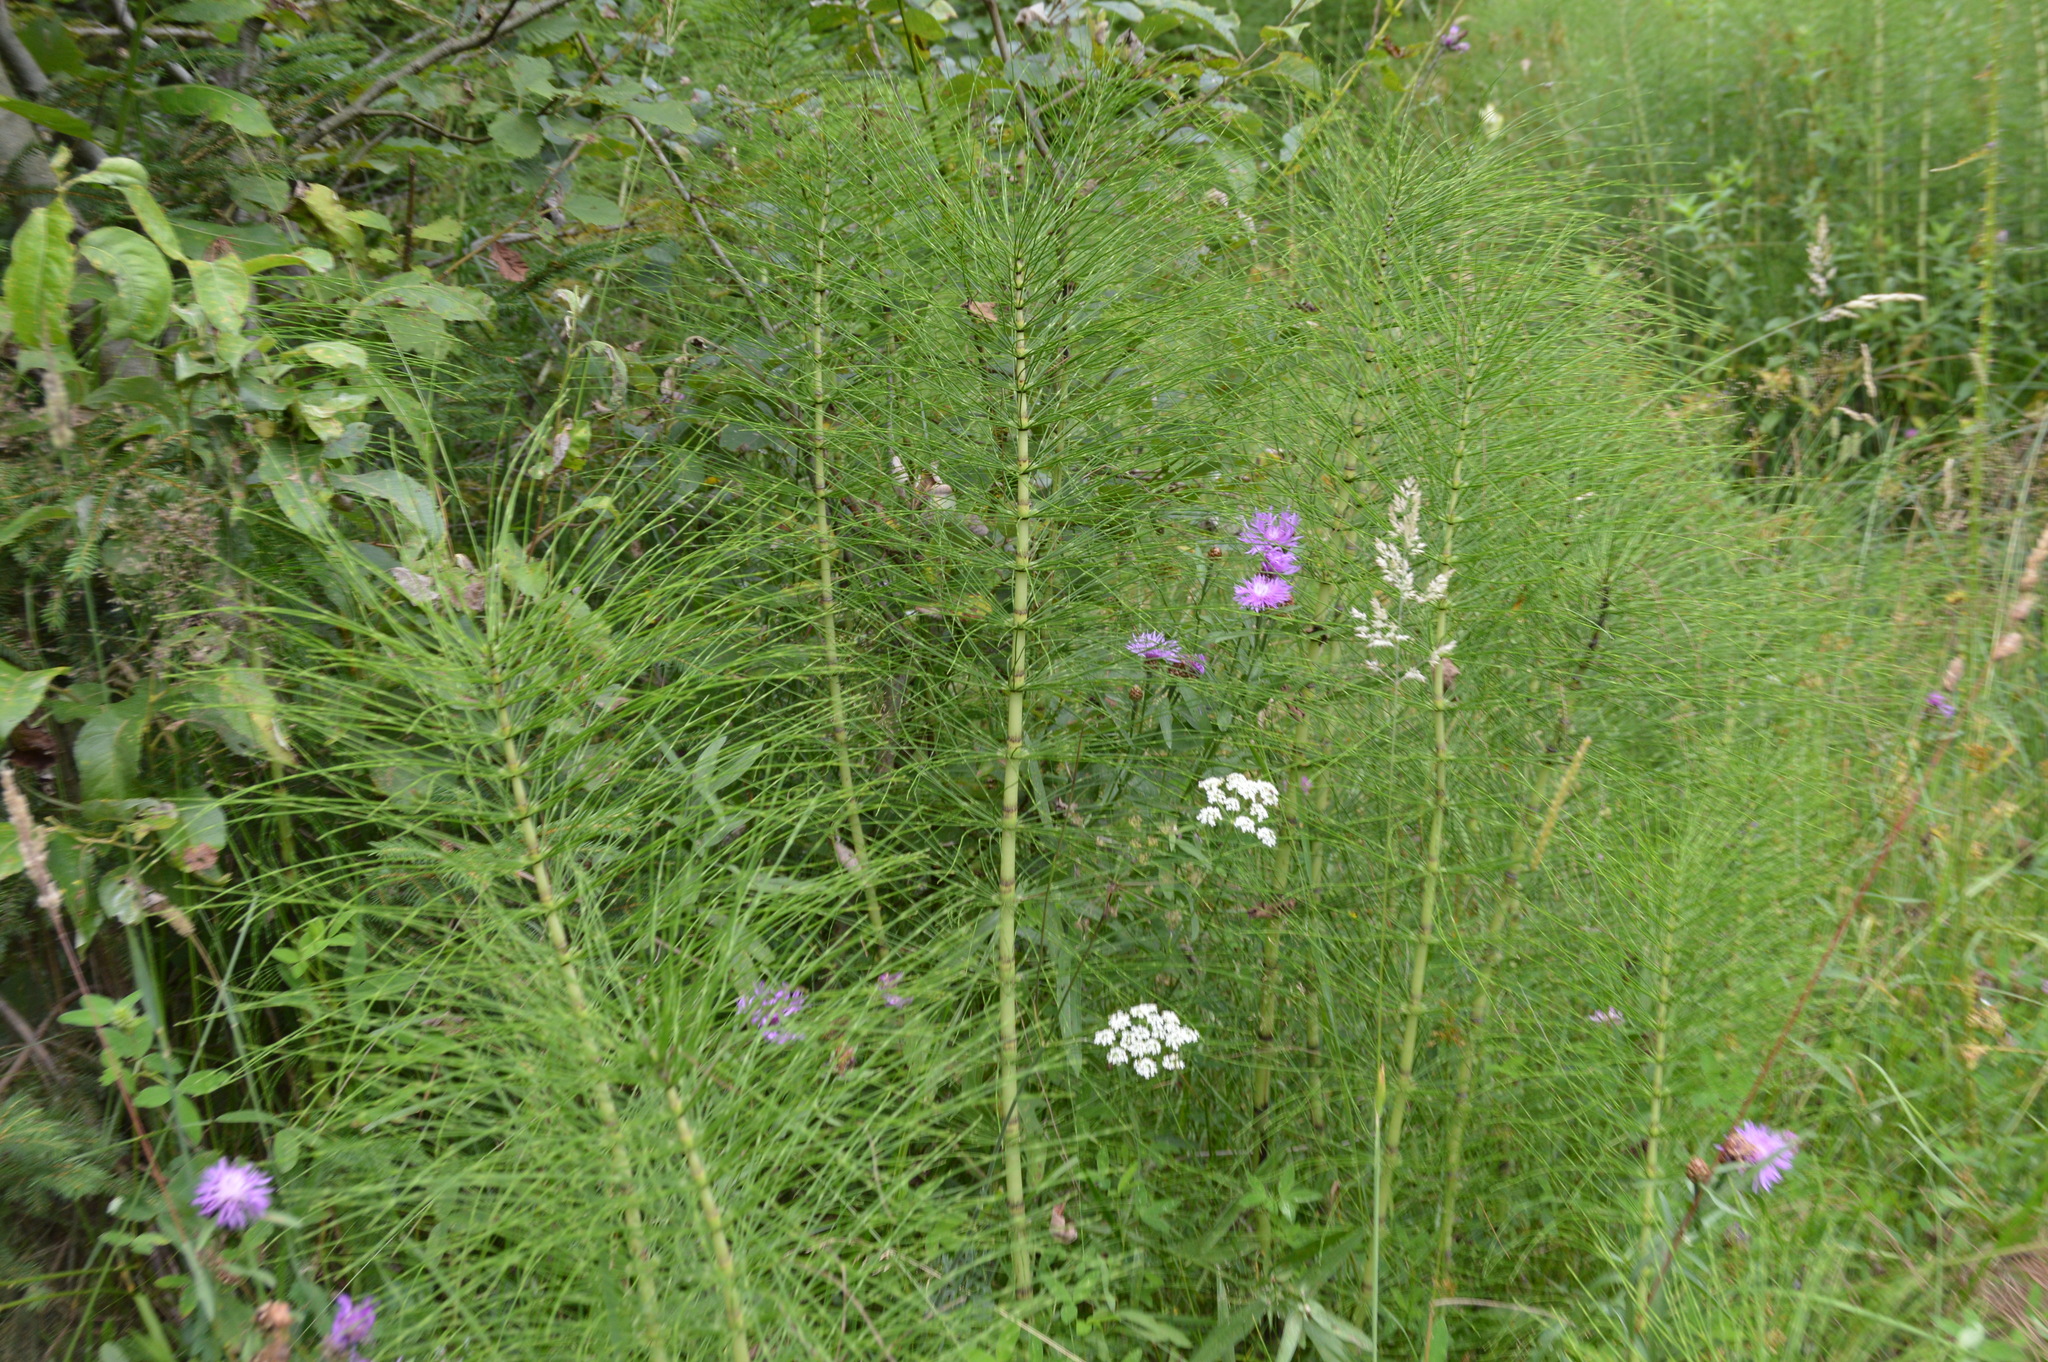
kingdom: Plantae
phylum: Tracheophyta
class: Polypodiopsida
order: Equisetales
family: Equisetaceae
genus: Equisetum
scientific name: Equisetum telmateia
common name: Great horsetail
